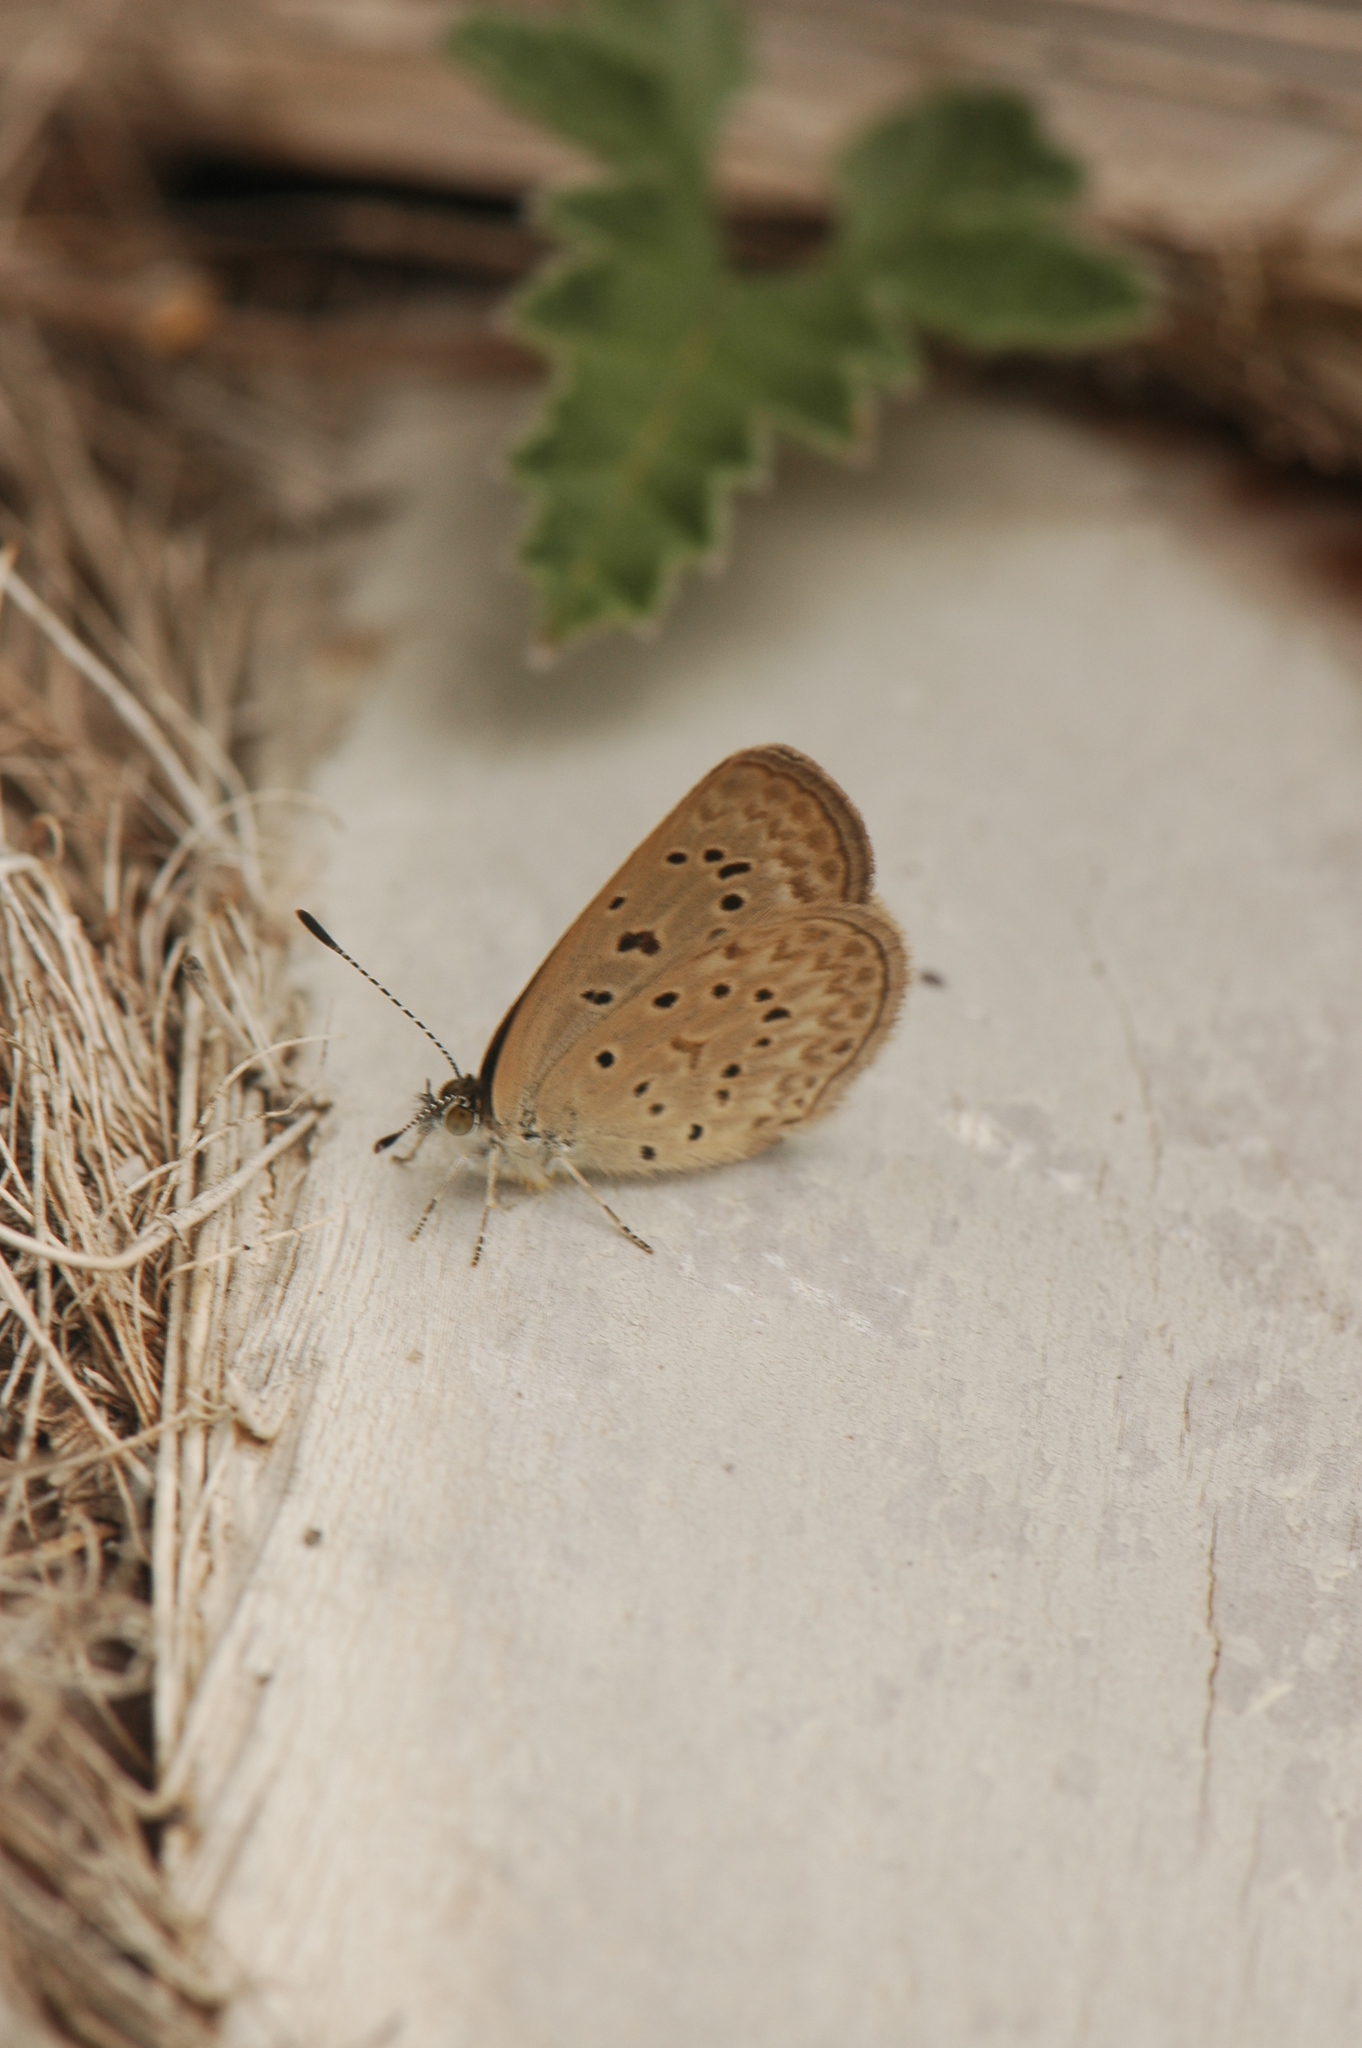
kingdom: Animalia
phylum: Arthropoda
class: Insecta
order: Lepidoptera
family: Lycaenidae
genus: Zizeeria
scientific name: Zizeeria knysna
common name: African grass blue
